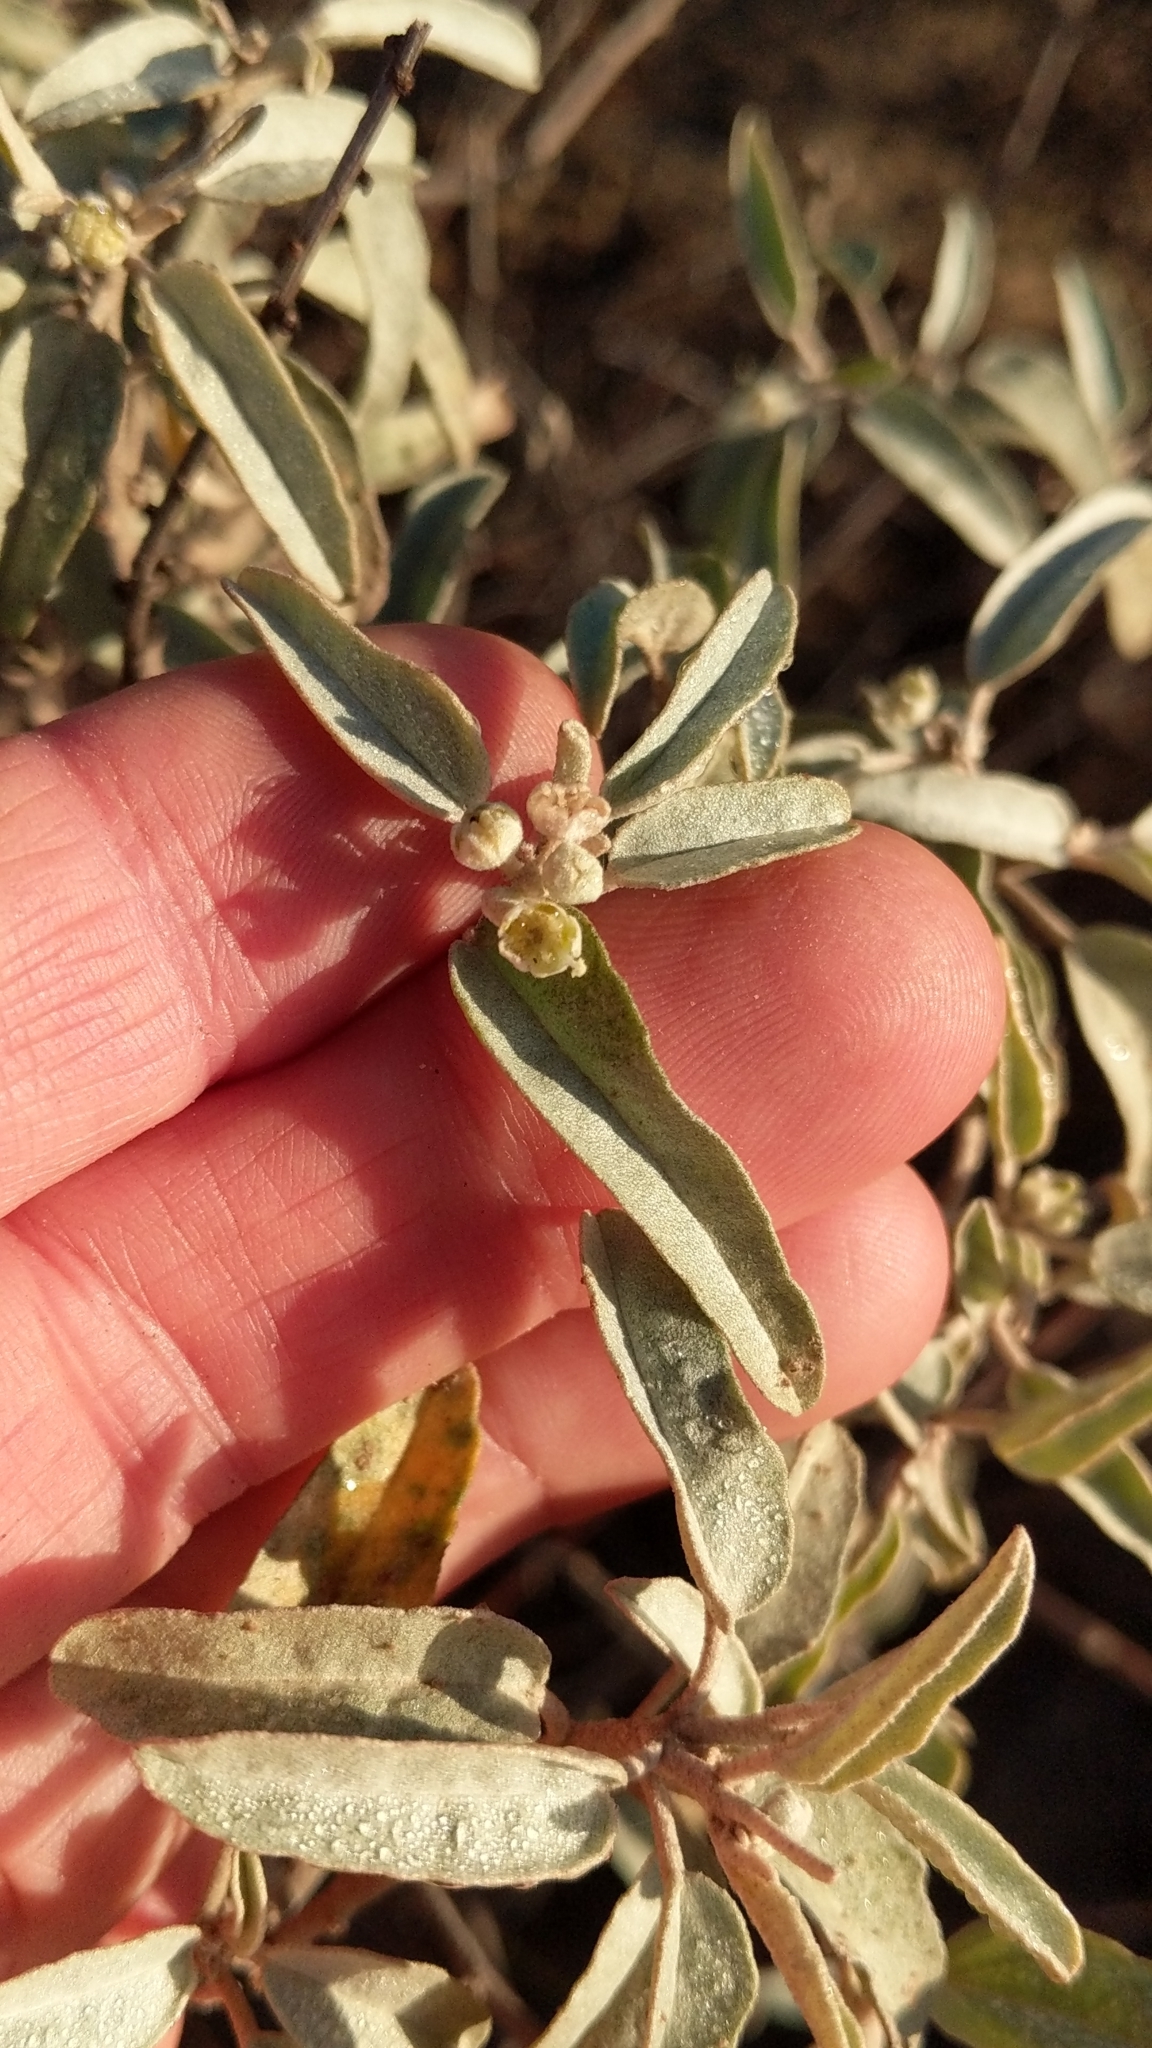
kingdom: Plantae
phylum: Tracheophyta
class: Magnoliopsida
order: Malpighiales
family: Euphorbiaceae
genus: Croton
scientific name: Croton californicus
